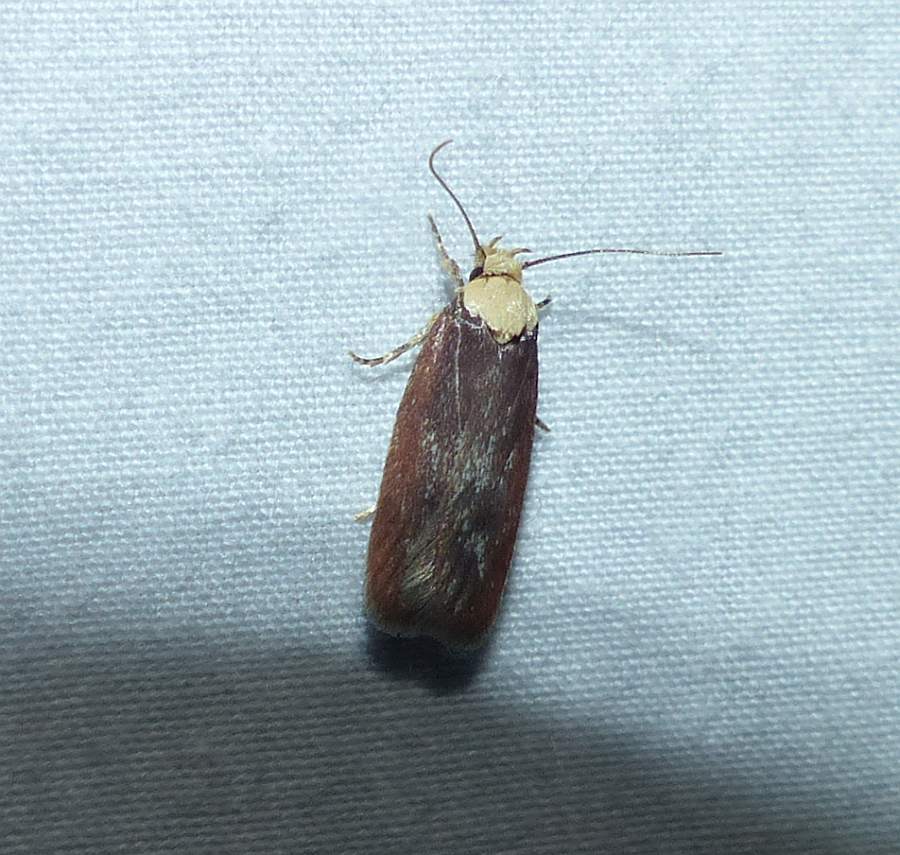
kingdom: Animalia
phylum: Arthropoda
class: Insecta
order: Lepidoptera
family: Depressariidae
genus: Depressaria
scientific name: Depressaria depressana
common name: Lost flat-body
